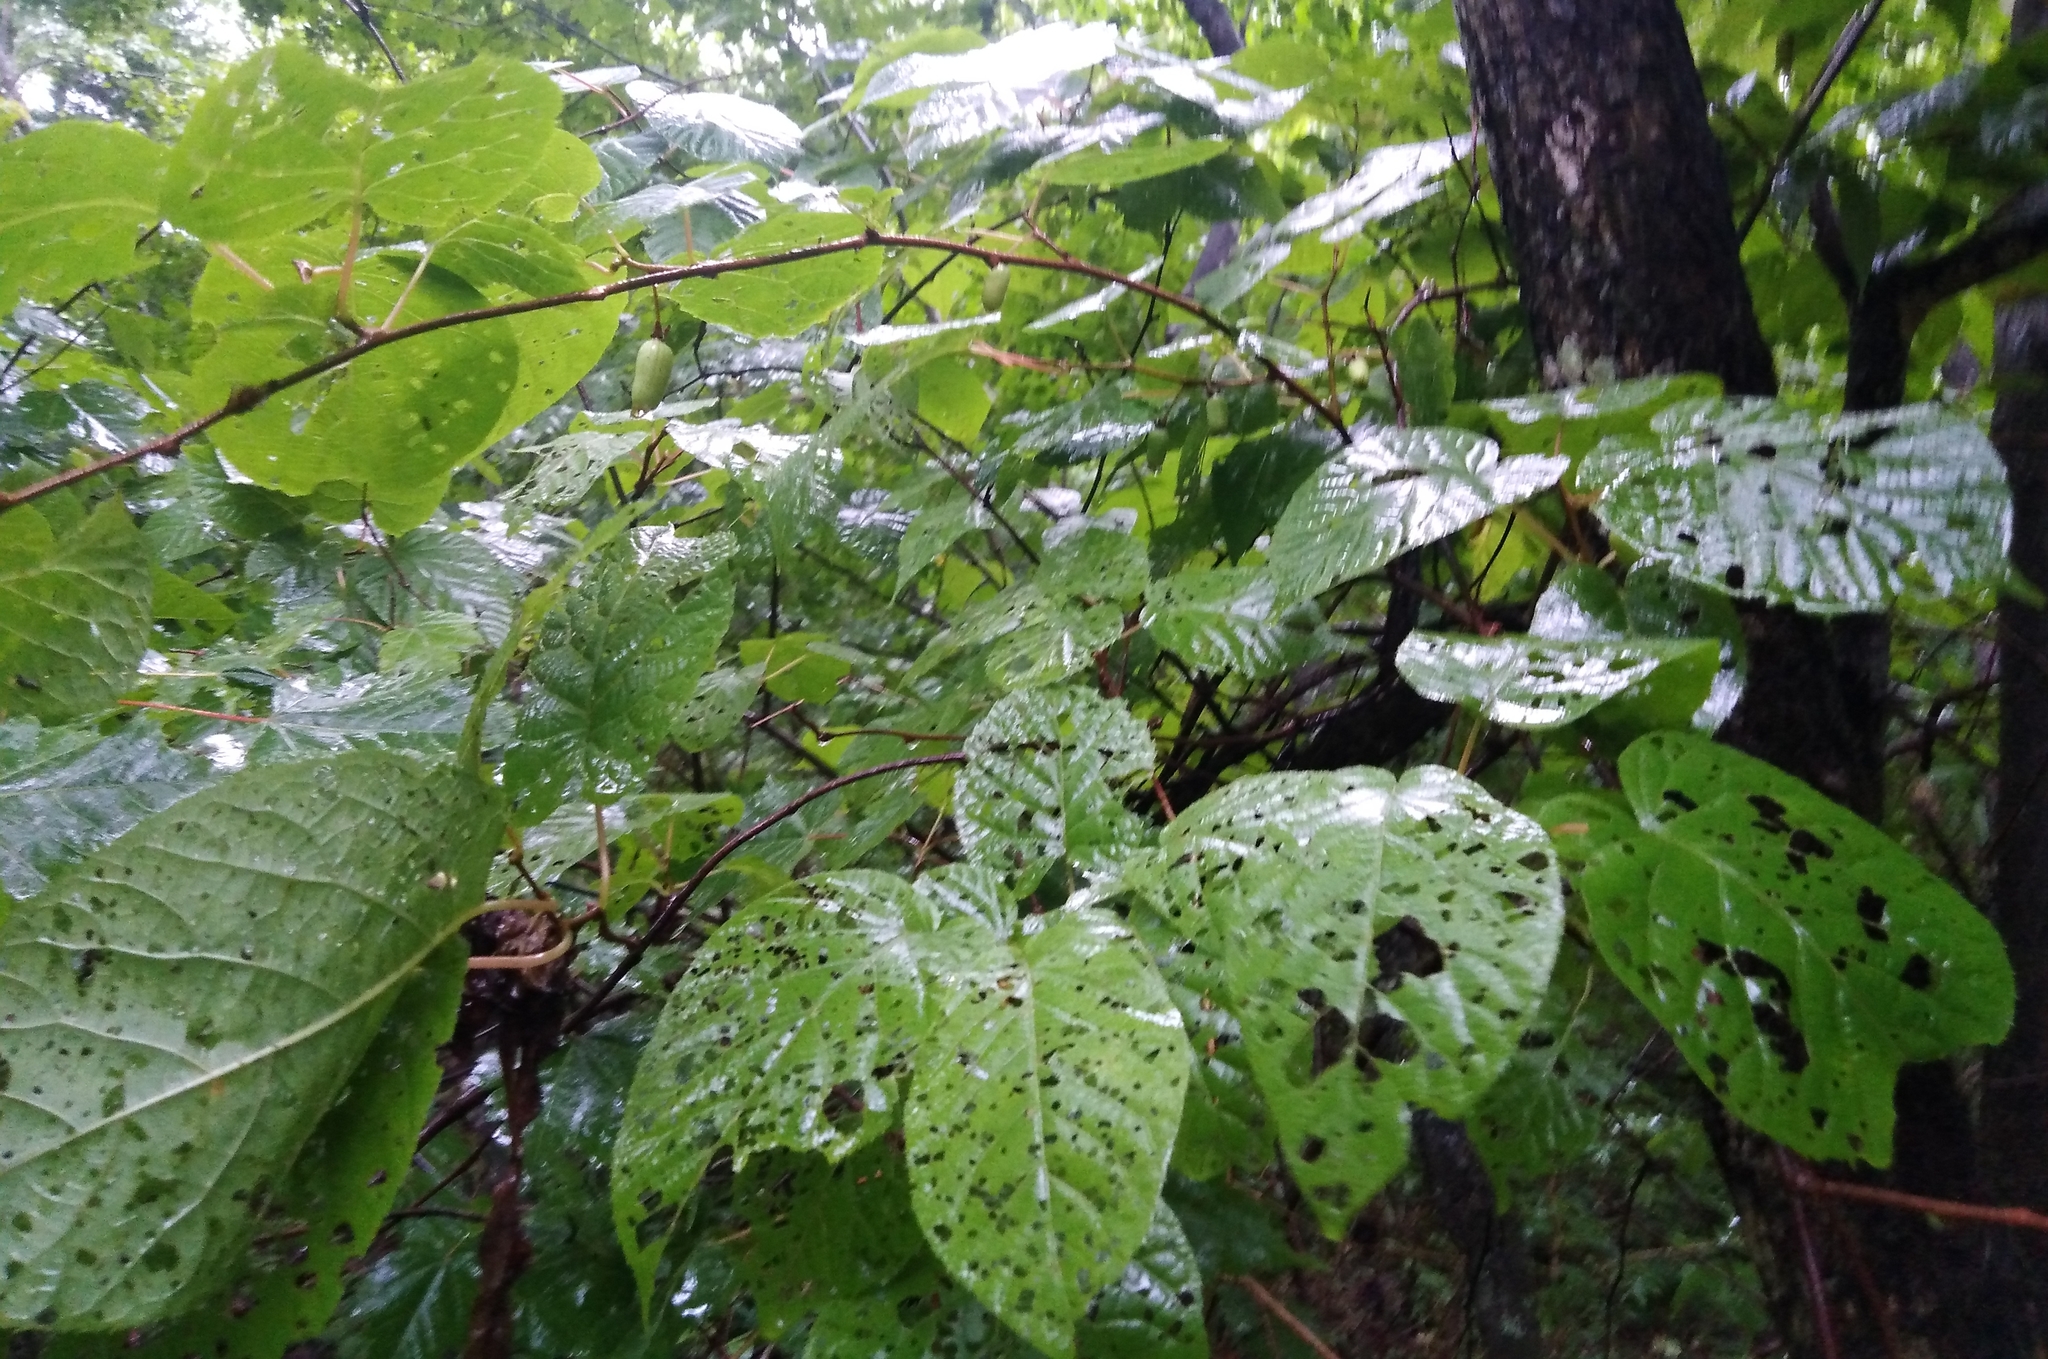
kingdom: Plantae
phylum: Tracheophyta
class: Magnoliopsida
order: Ericales
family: Actinidiaceae
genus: Actinidia
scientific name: Actinidia kolomikta
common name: Arctic beauty kiwi
